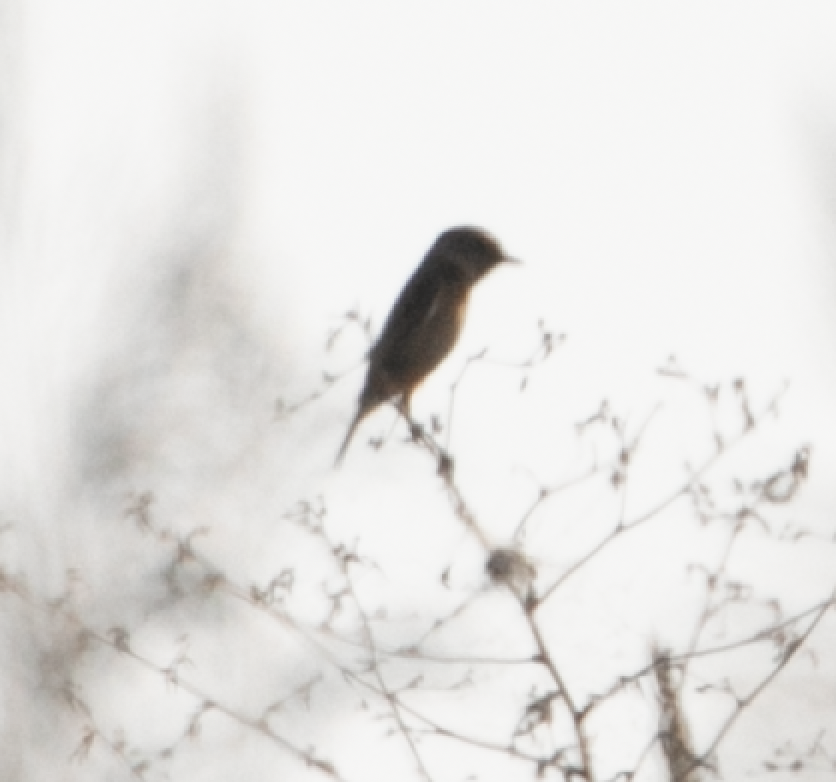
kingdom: Animalia
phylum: Chordata
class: Aves
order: Passeriformes
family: Muscicapidae
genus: Saxicola
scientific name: Saxicola rubicola
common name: European stonechat
